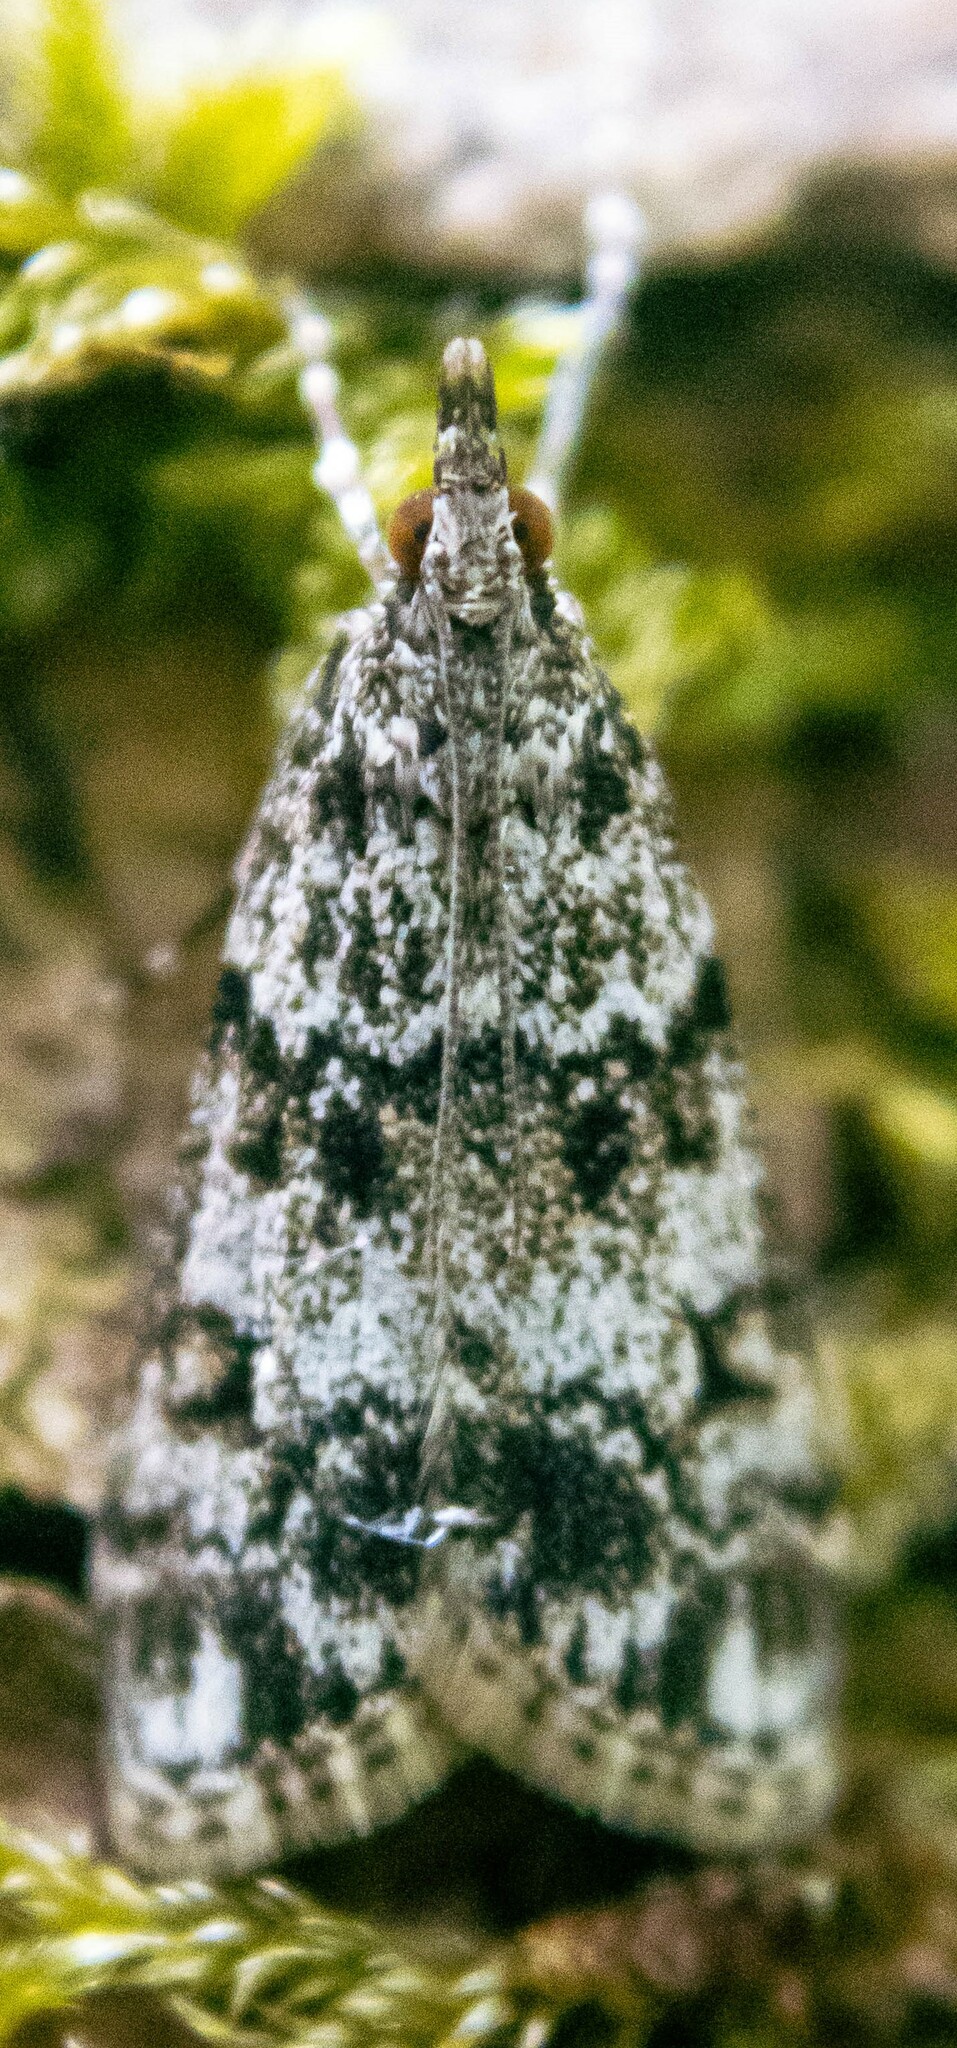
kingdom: Animalia
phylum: Arthropoda
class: Insecta
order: Lepidoptera
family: Crambidae
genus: Eudonia
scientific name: Eudonia lacustrata
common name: Little grey
